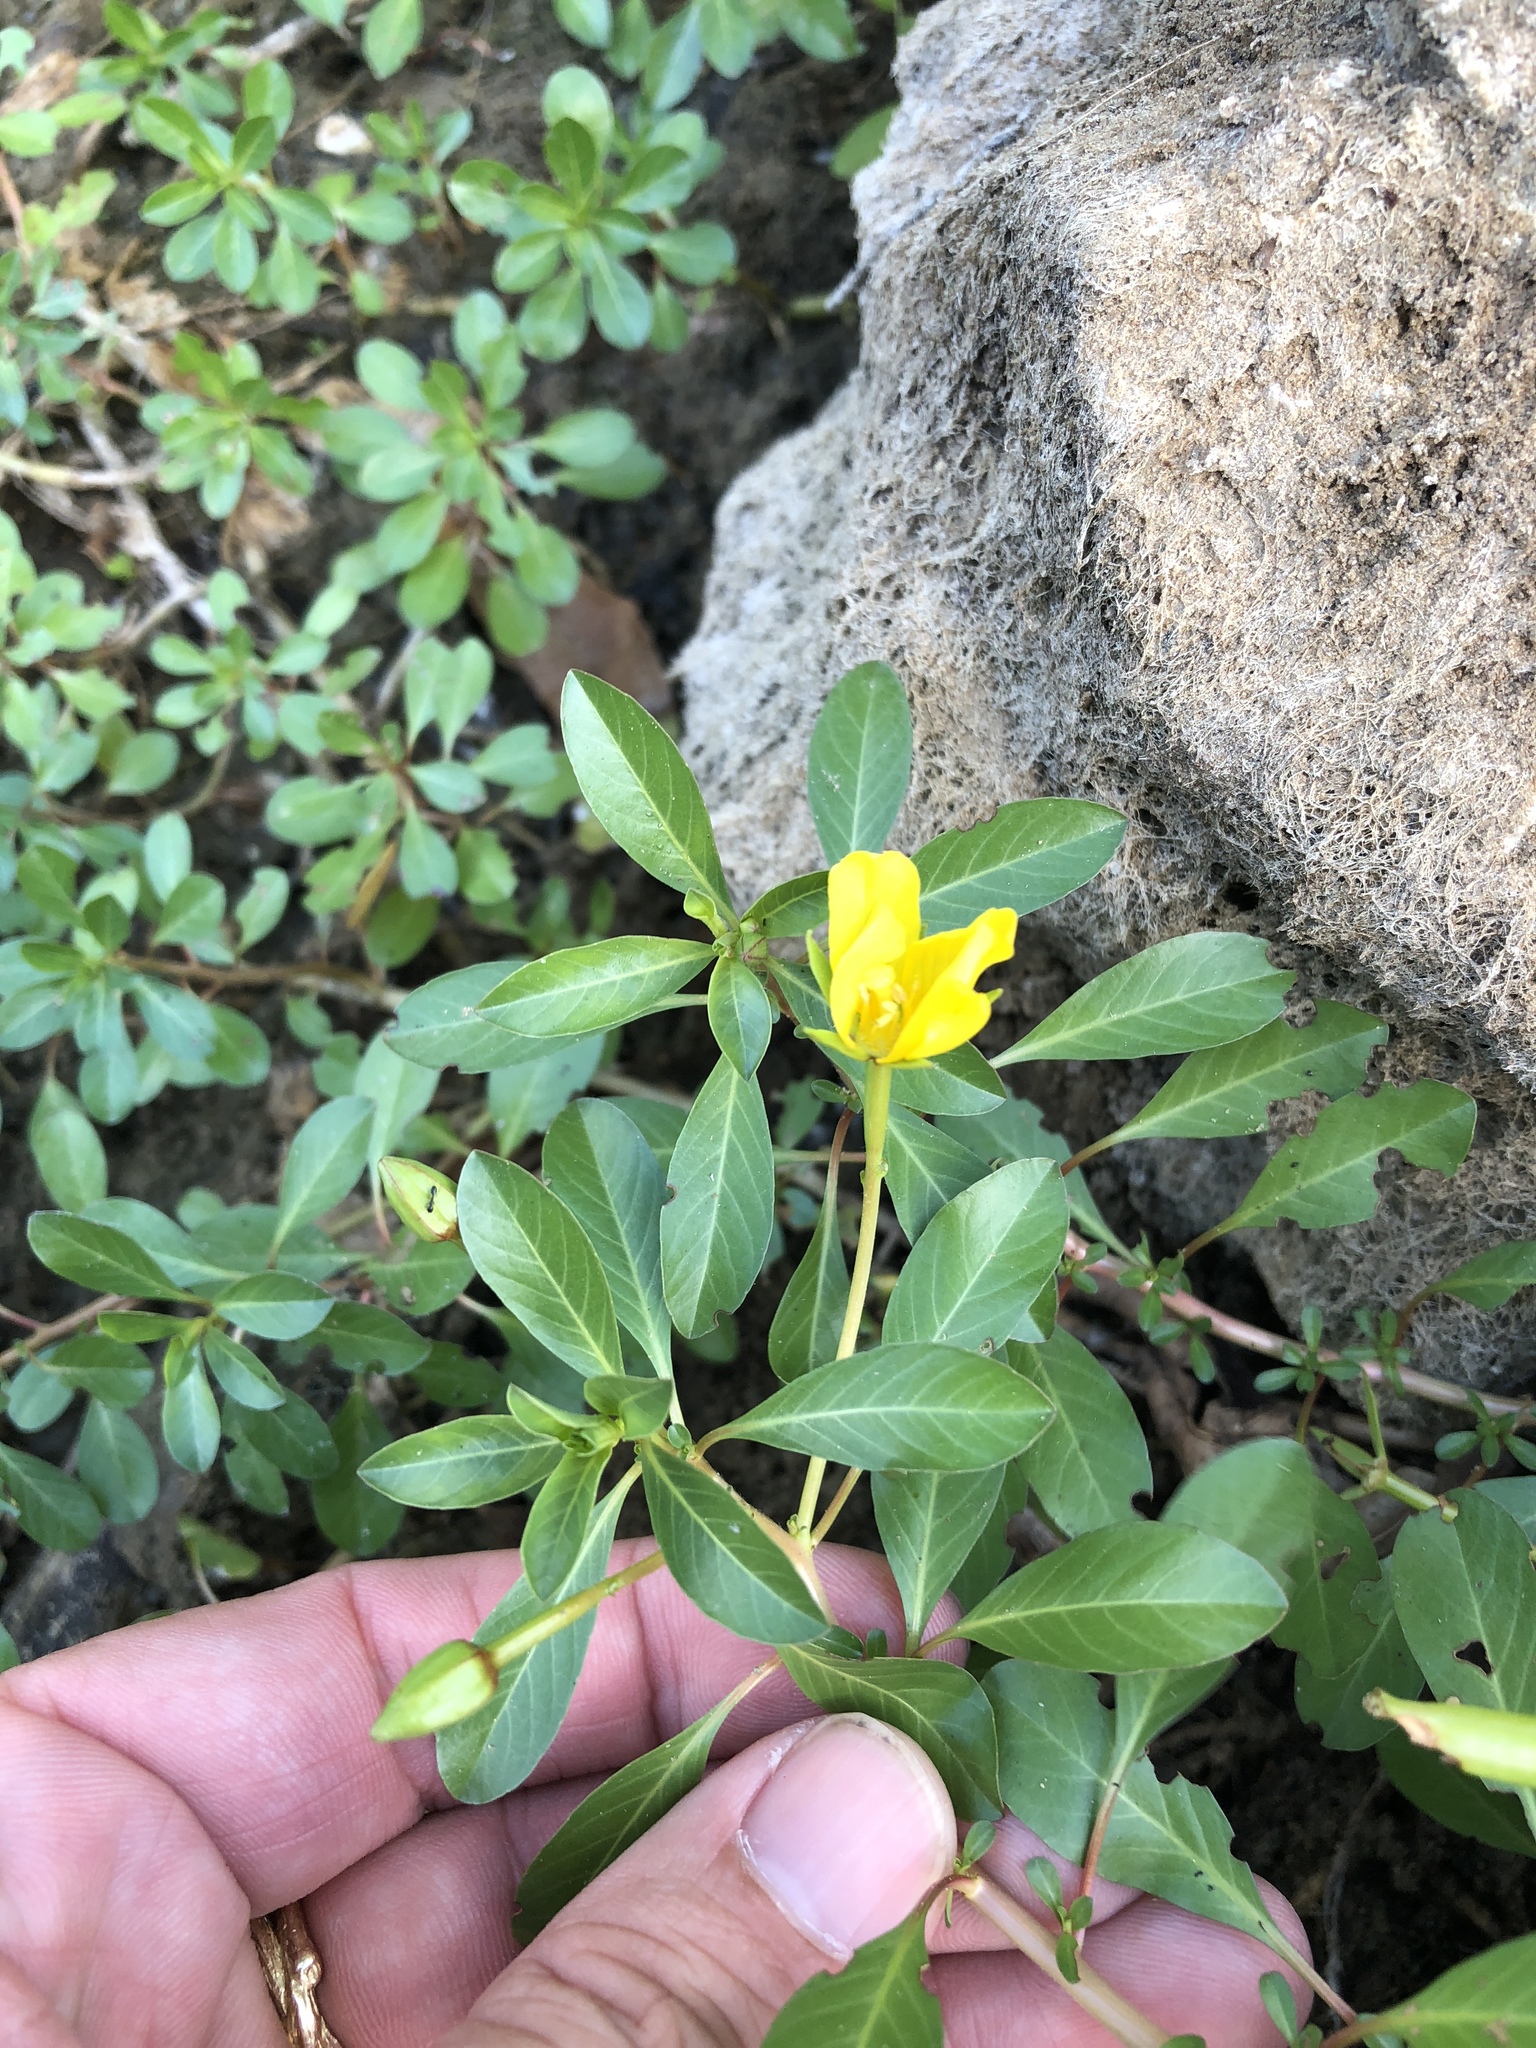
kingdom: Plantae
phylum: Tracheophyta
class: Magnoliopsida
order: Myrtales
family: Onagraceae
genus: Ludwigia
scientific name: Ludwigia peploides
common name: Floating primrose-willow
